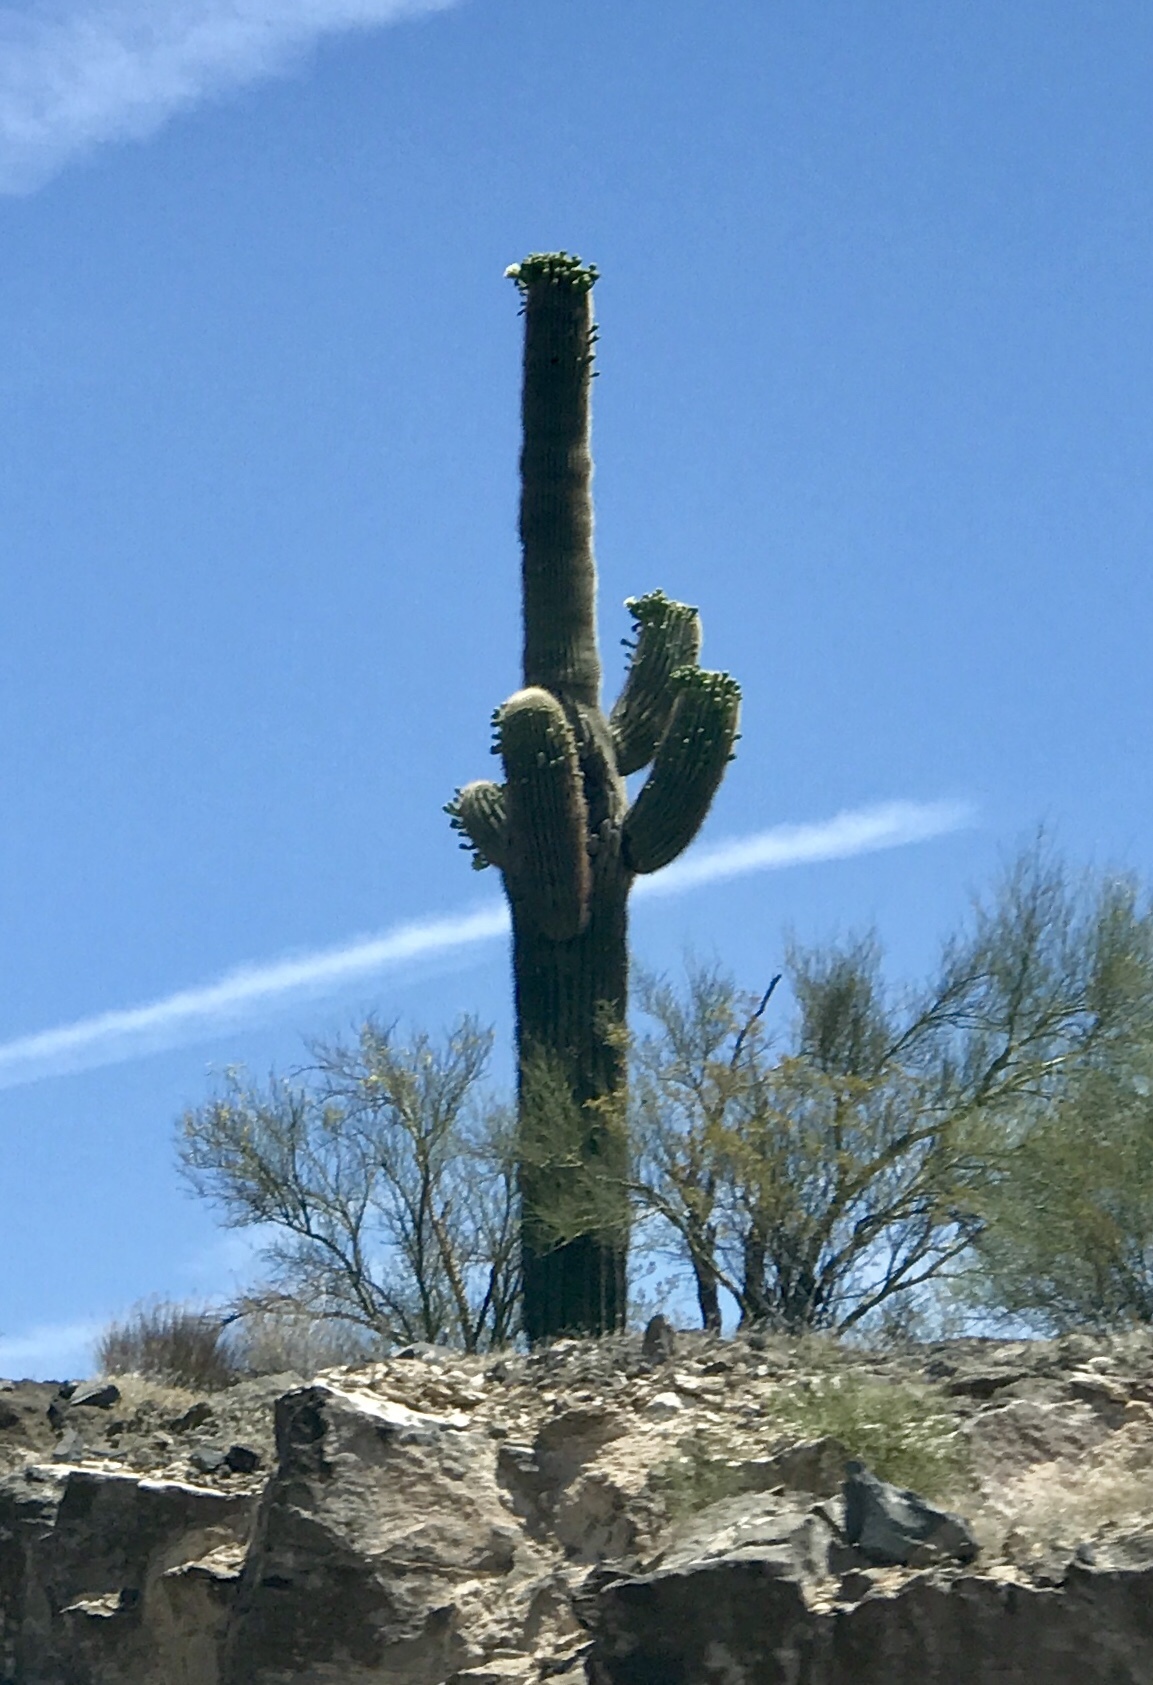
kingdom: Plantae
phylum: Tracheophyta
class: Magnoliopsida
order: Caryophyllales
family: Cactaceae
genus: Carnegiea
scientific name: Carnegiea gigantea
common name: Saguaro
